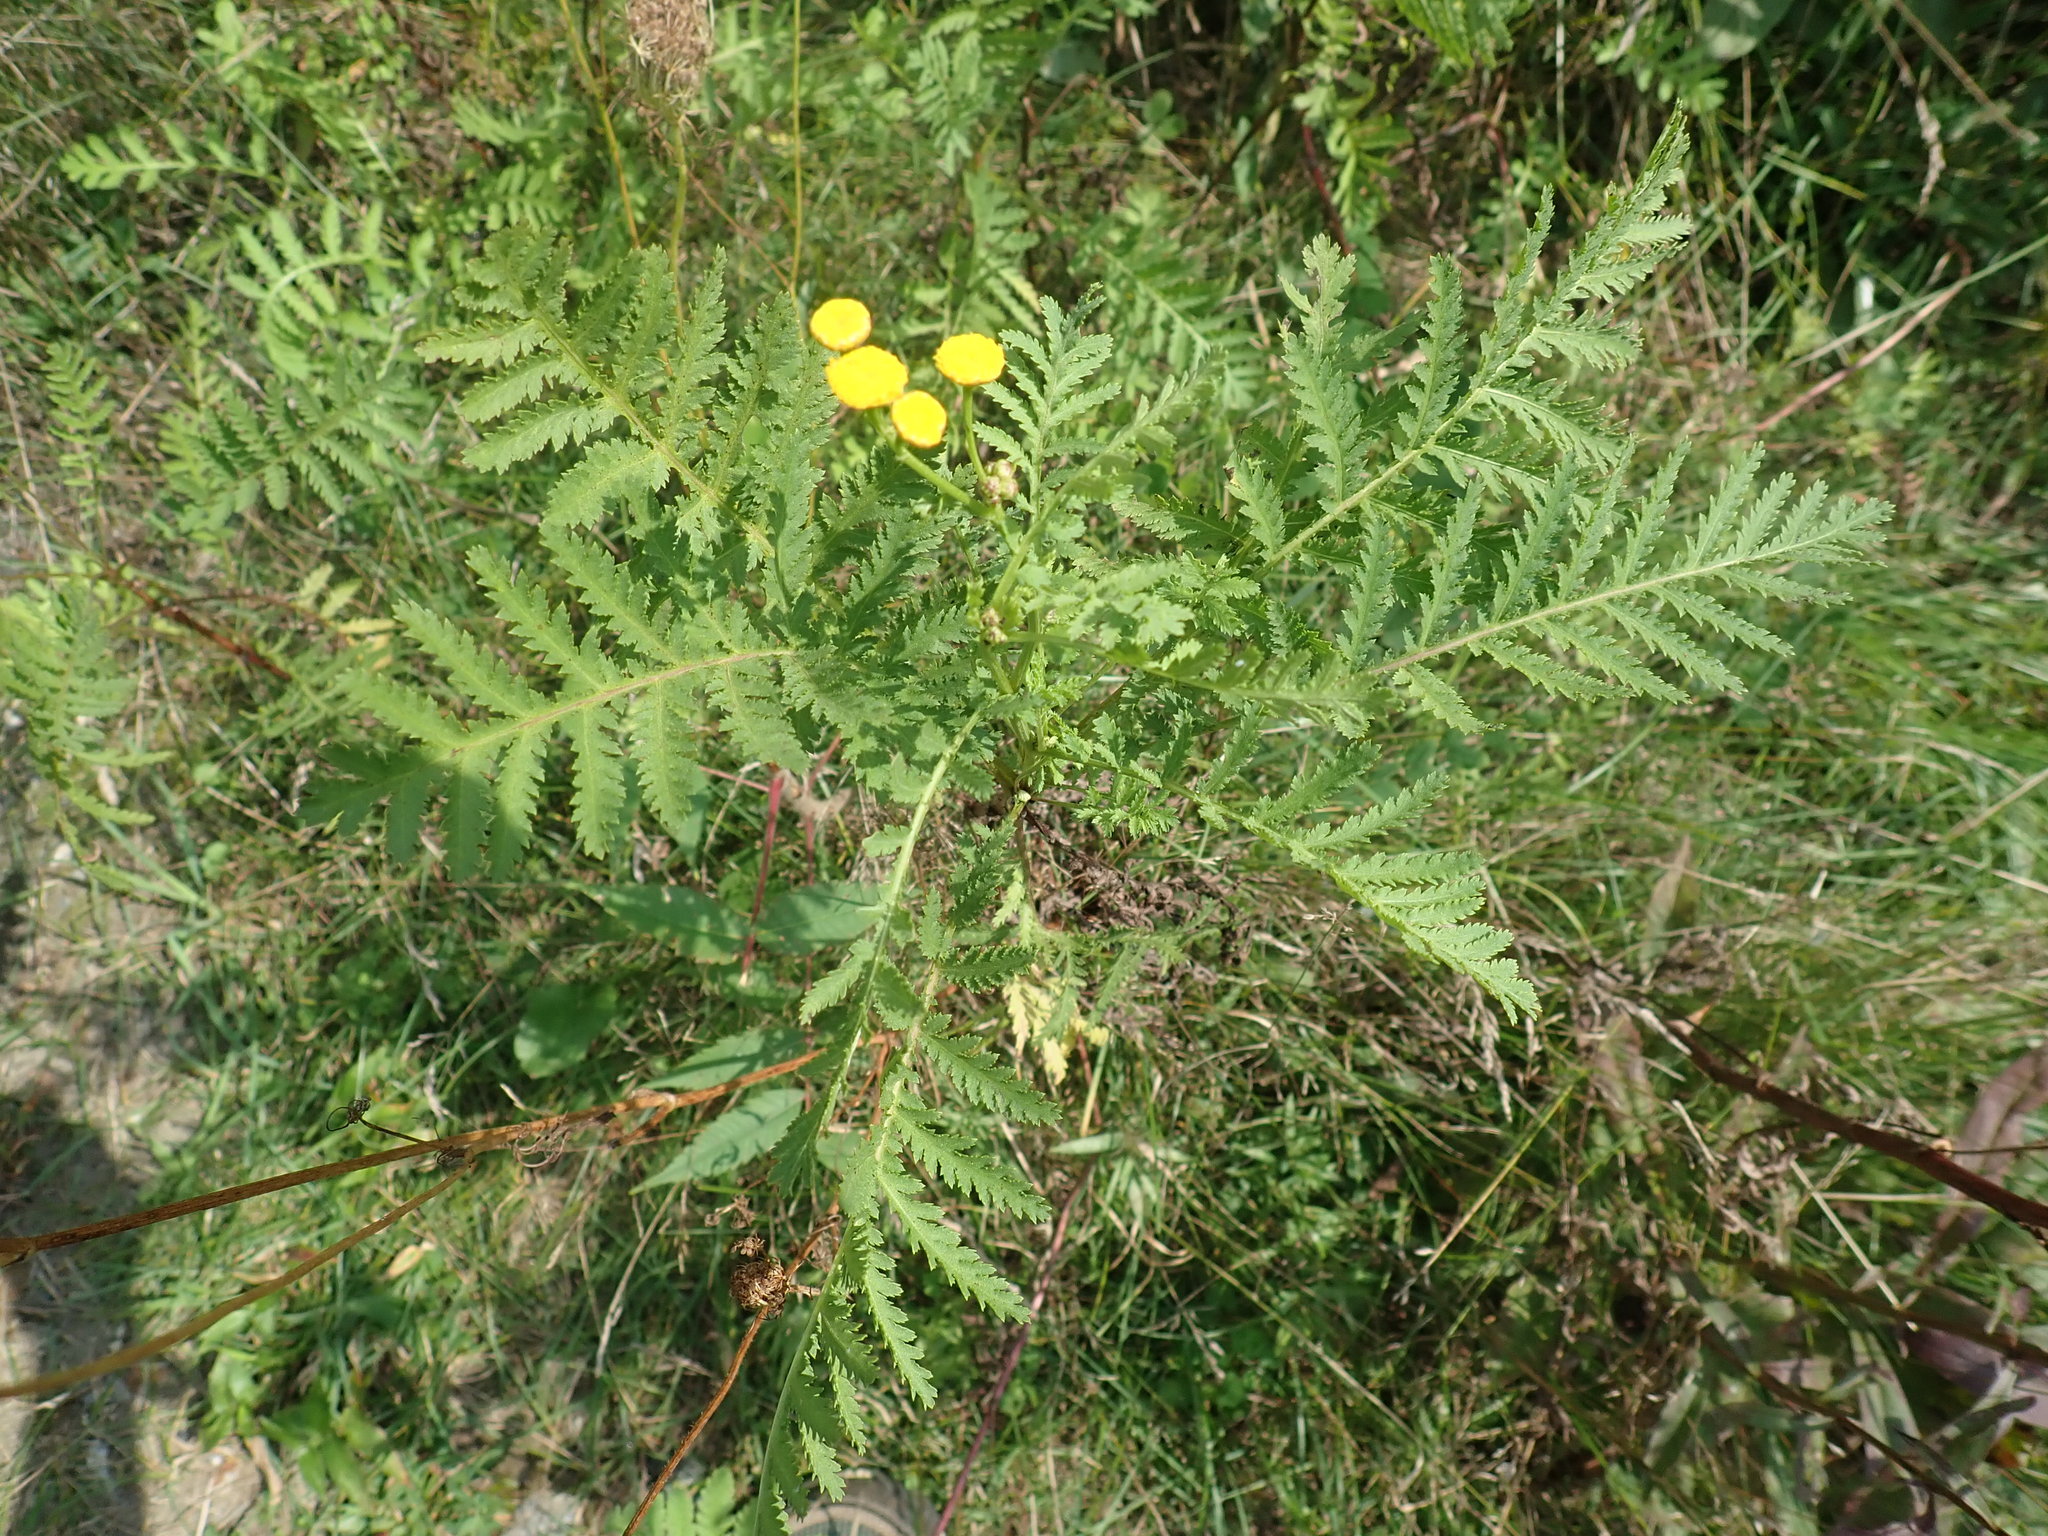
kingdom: Plantae
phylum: Tracheophyta
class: Magnoliopsida
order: Asterales
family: Asteraceae
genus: Tanacetum
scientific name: Tanacetum vulgare
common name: Common tansy
